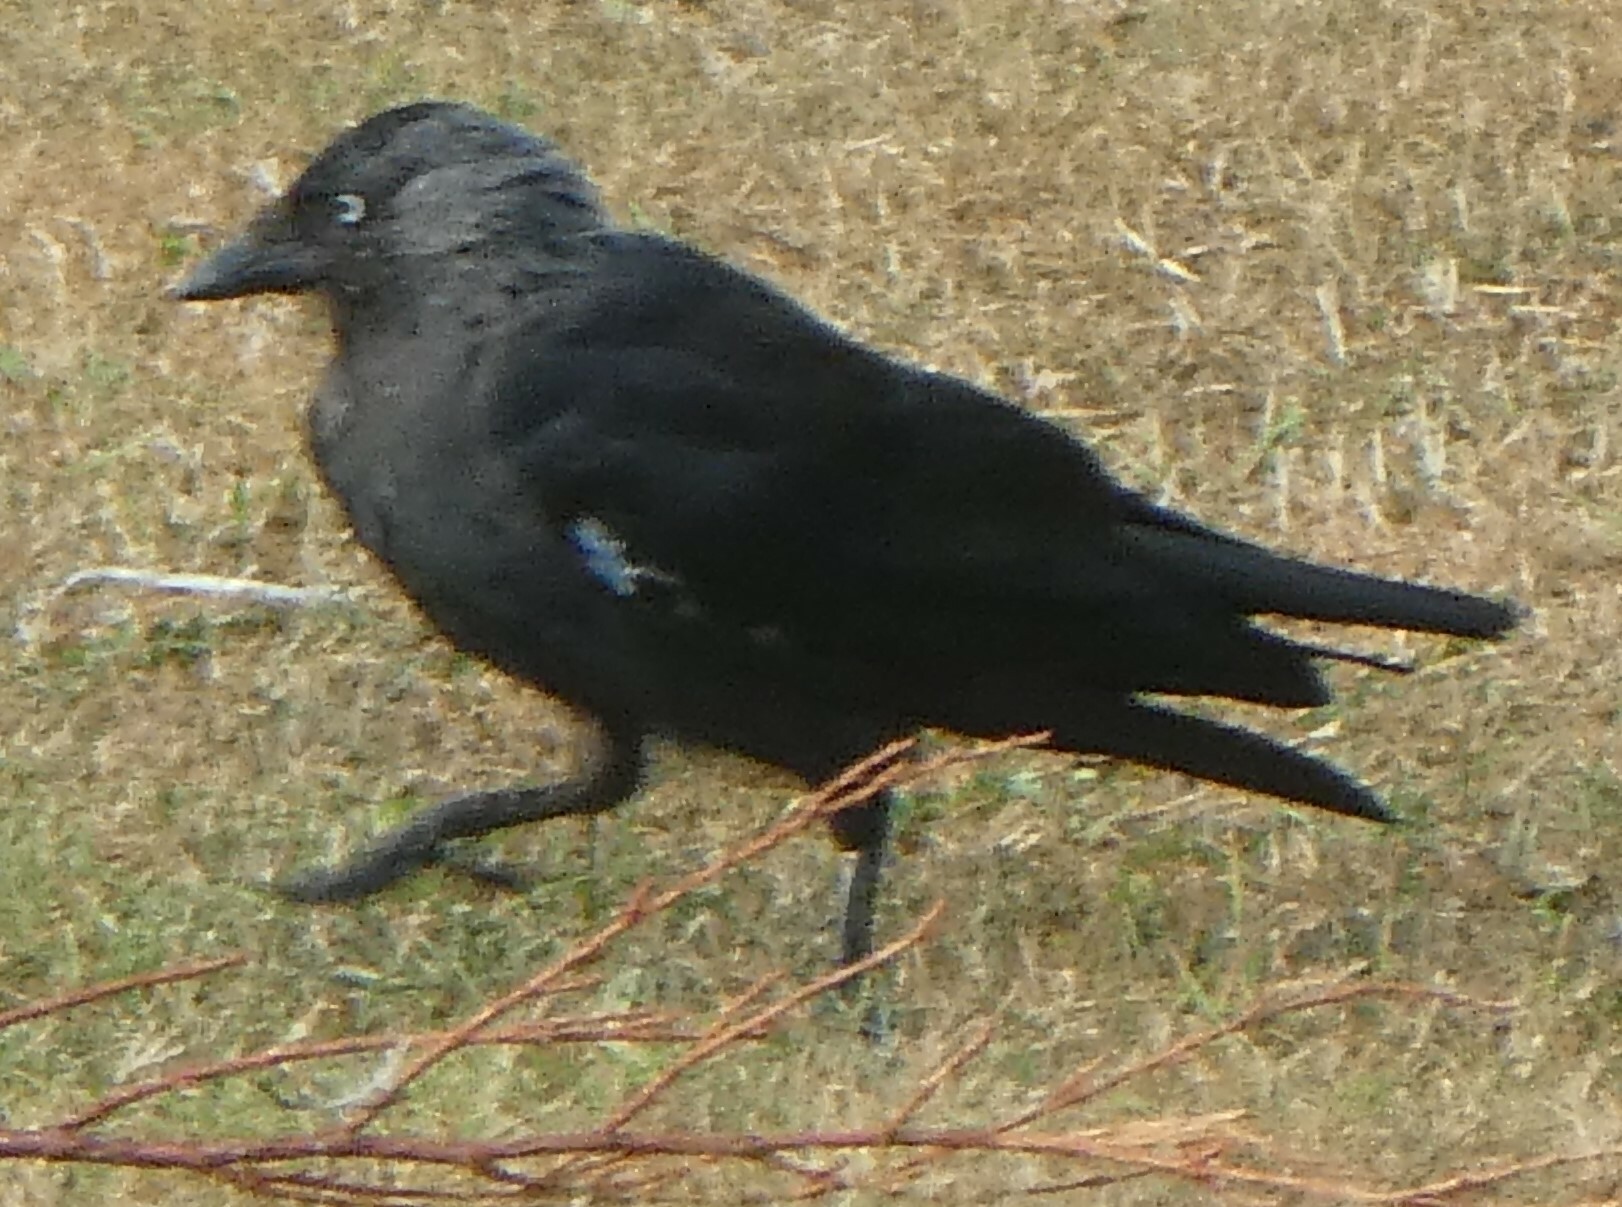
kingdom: Animalia
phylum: Chordata
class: Aves
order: Passeriformes
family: Corvidae
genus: Coloeus
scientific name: Coloeus monedula
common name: Western jackdaw
